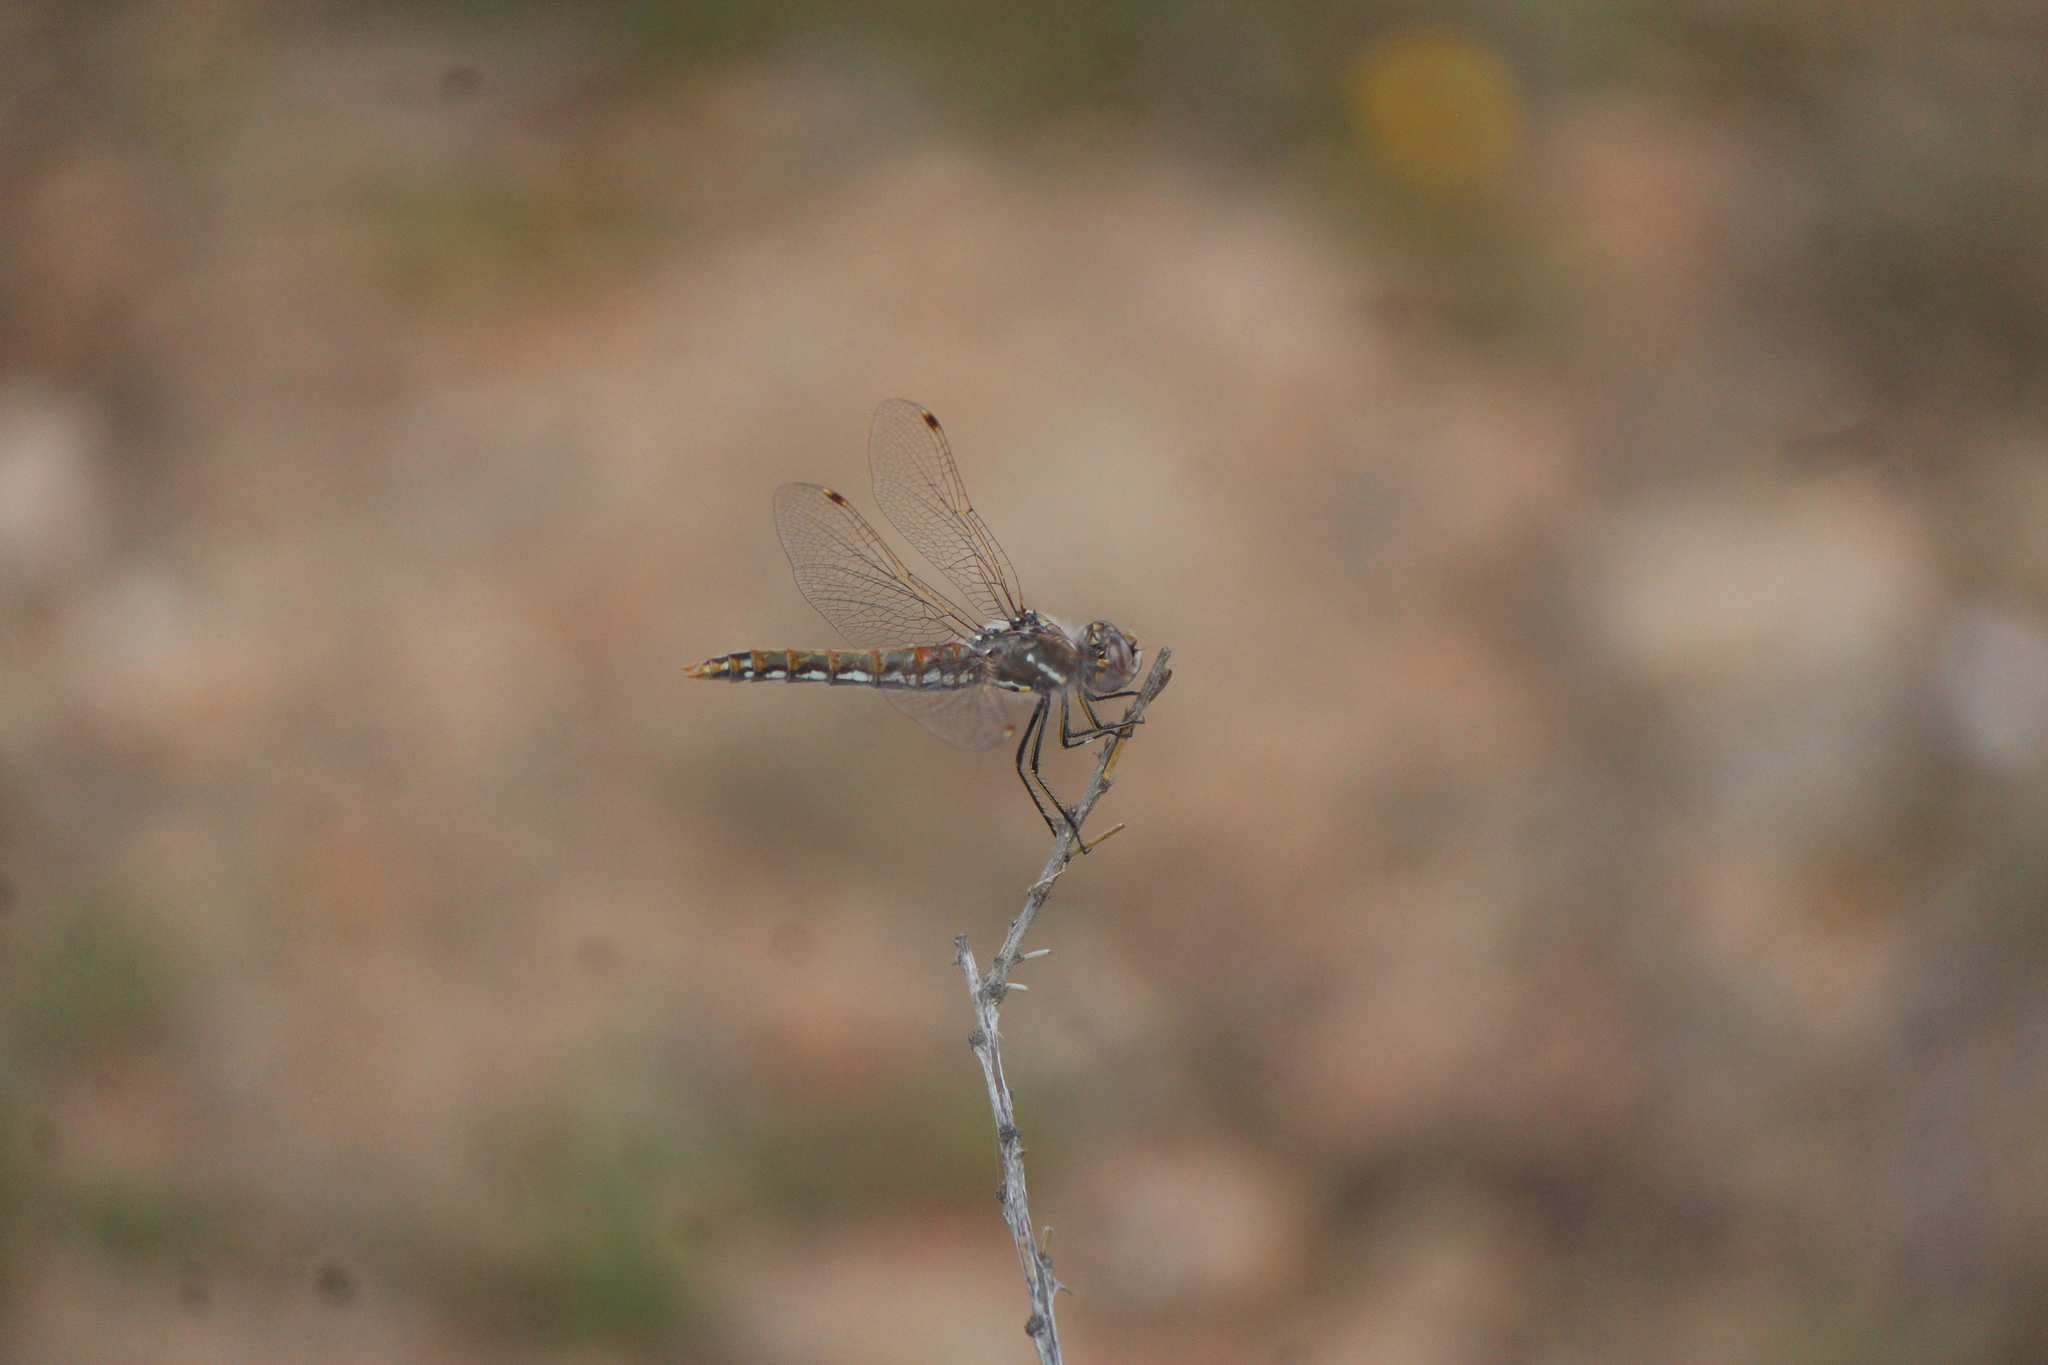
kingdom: Animalia
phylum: Arthropoda
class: Insecta
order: Odonata
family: Libellulidae
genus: Sympetrum
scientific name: Sympetrum corruptum
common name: Variegated meadowhawk
